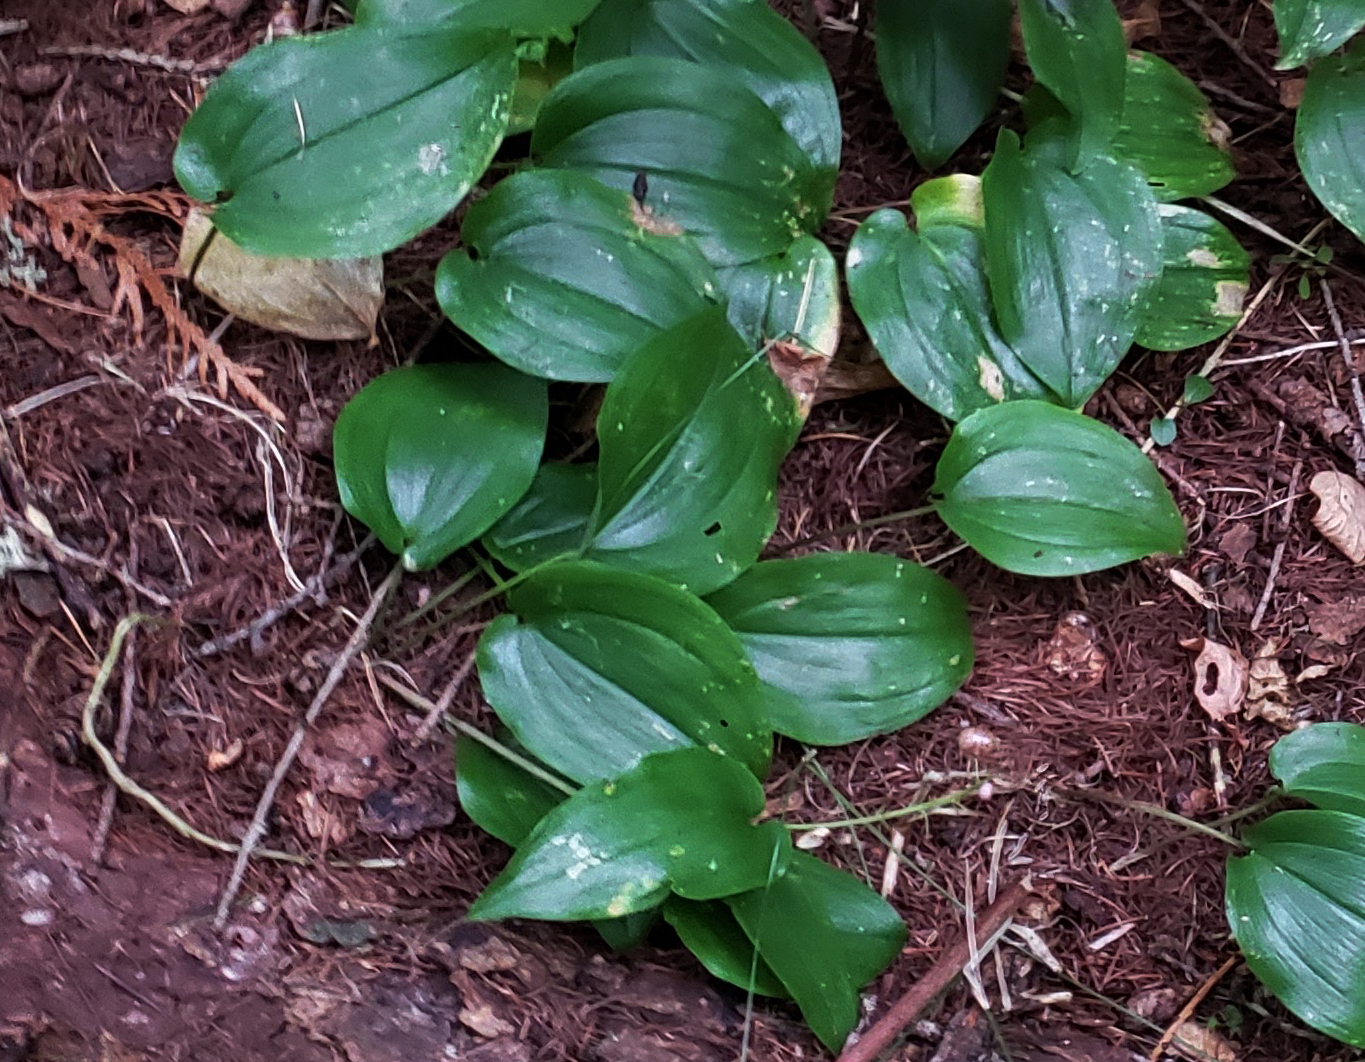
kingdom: Plantae
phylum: Tracheophyta
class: Liliopsida
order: Asparagales
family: Asparagaceae
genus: Maianthemum
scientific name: Maianthemum canadense
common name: False lily-of-the-valley
